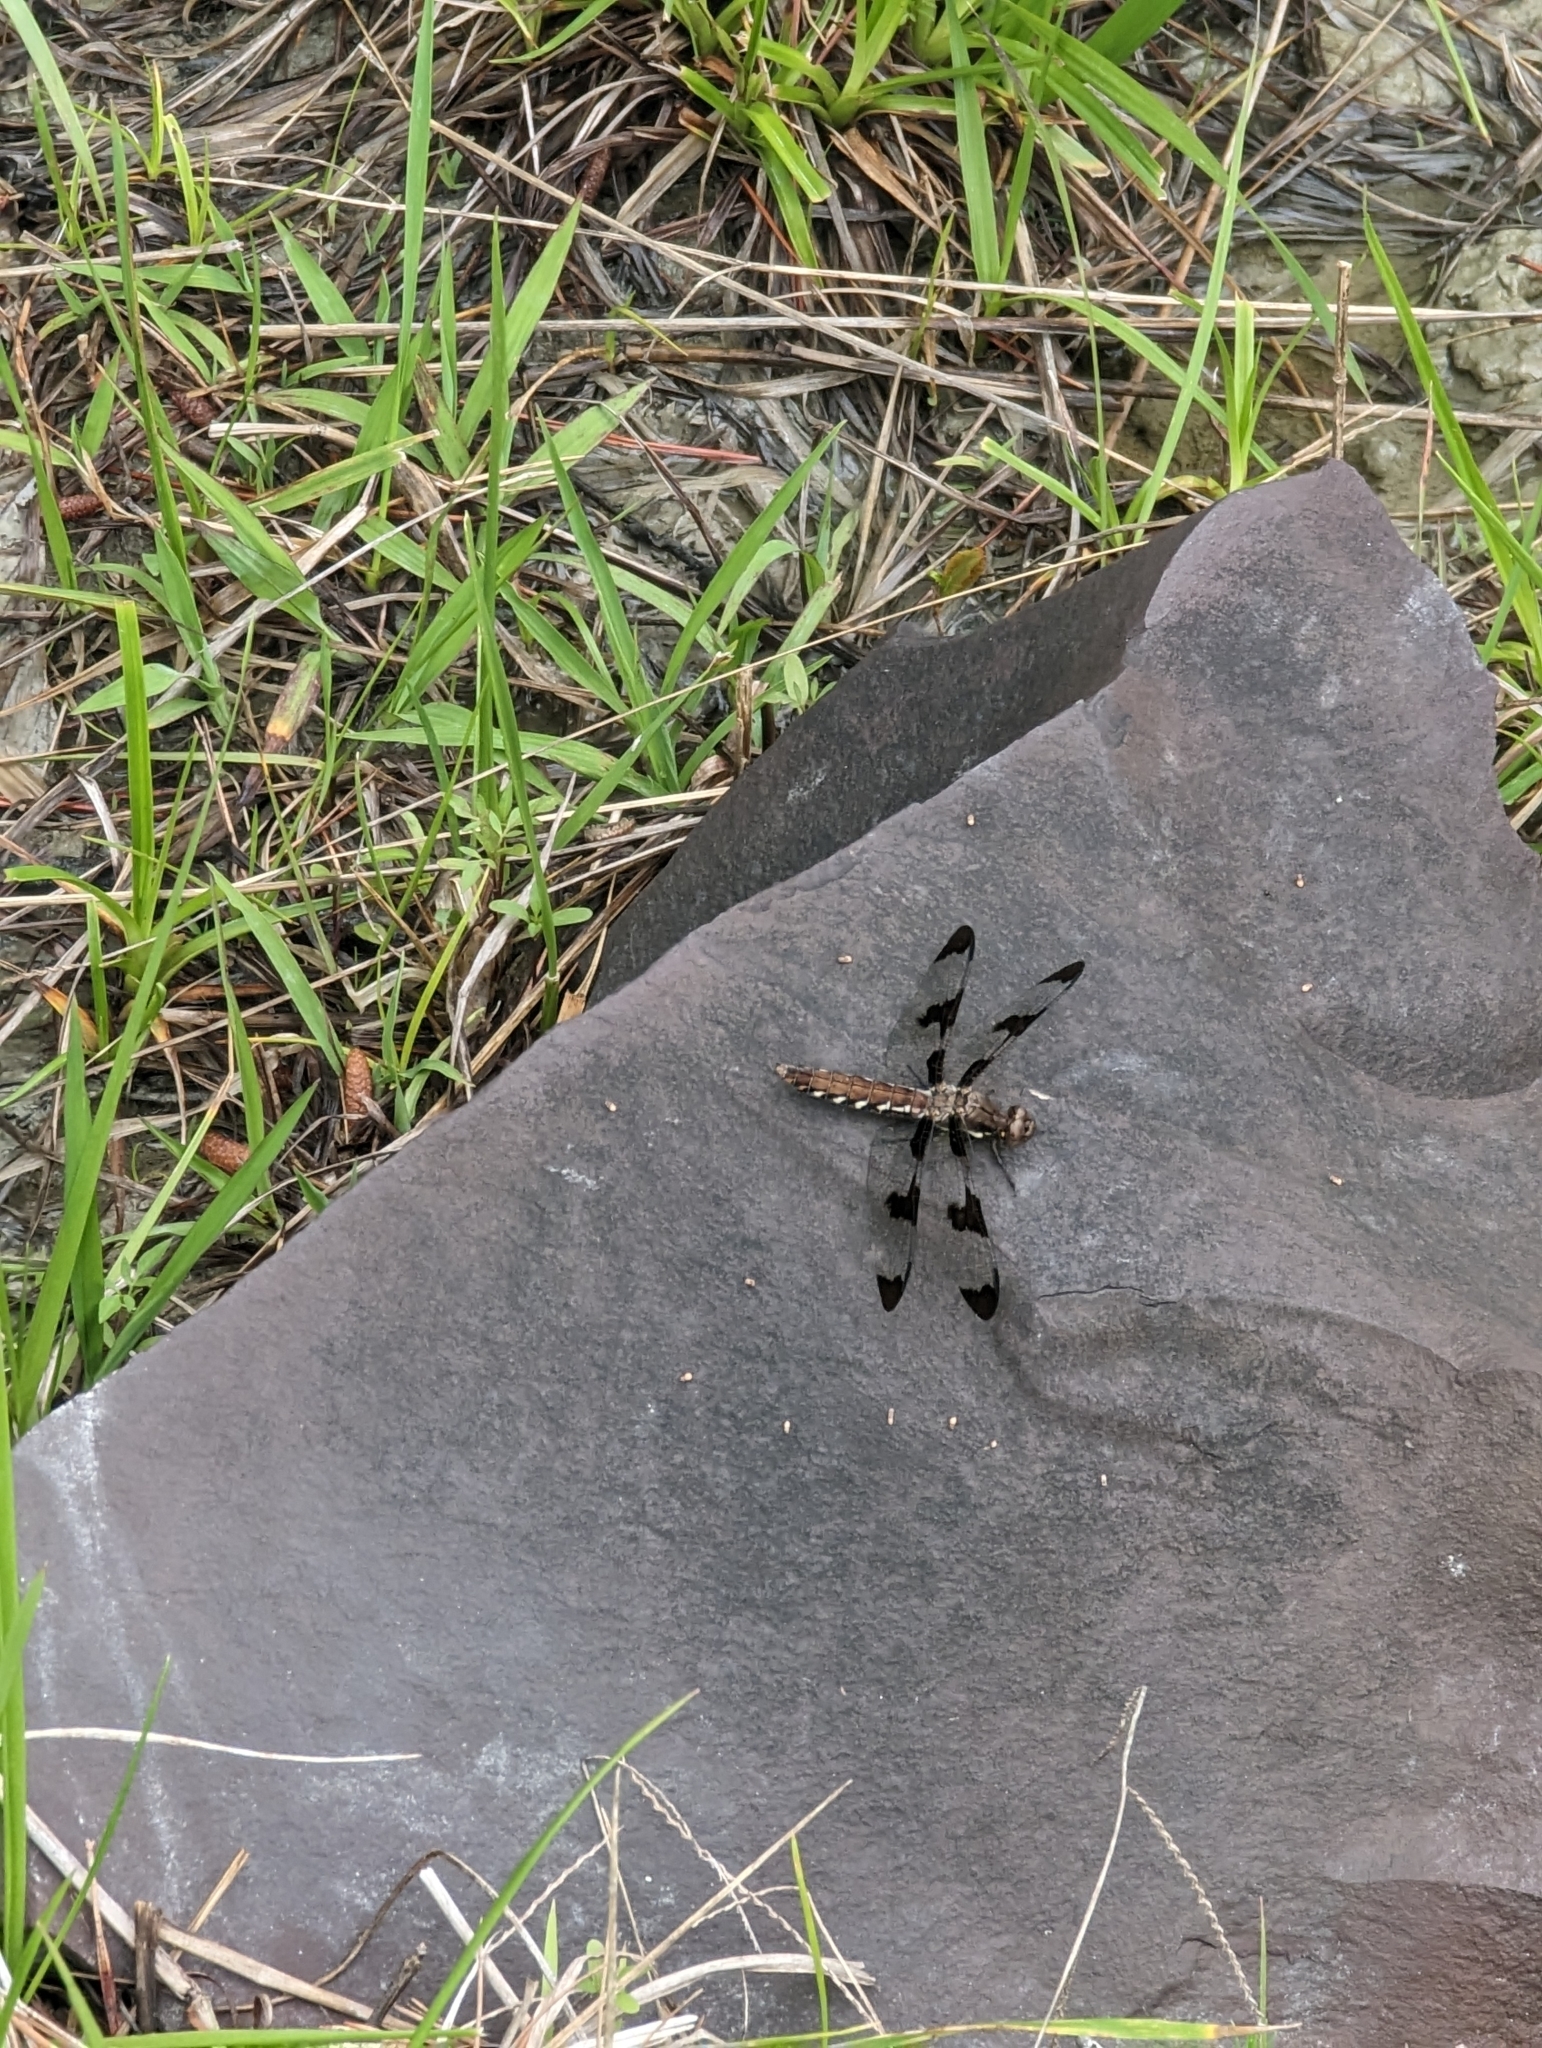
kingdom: Animalia
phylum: Arthropoda
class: Insecta
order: Odonata
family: Libellulidae
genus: Plathemis
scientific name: Plathemis lydia
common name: Common whitetail
